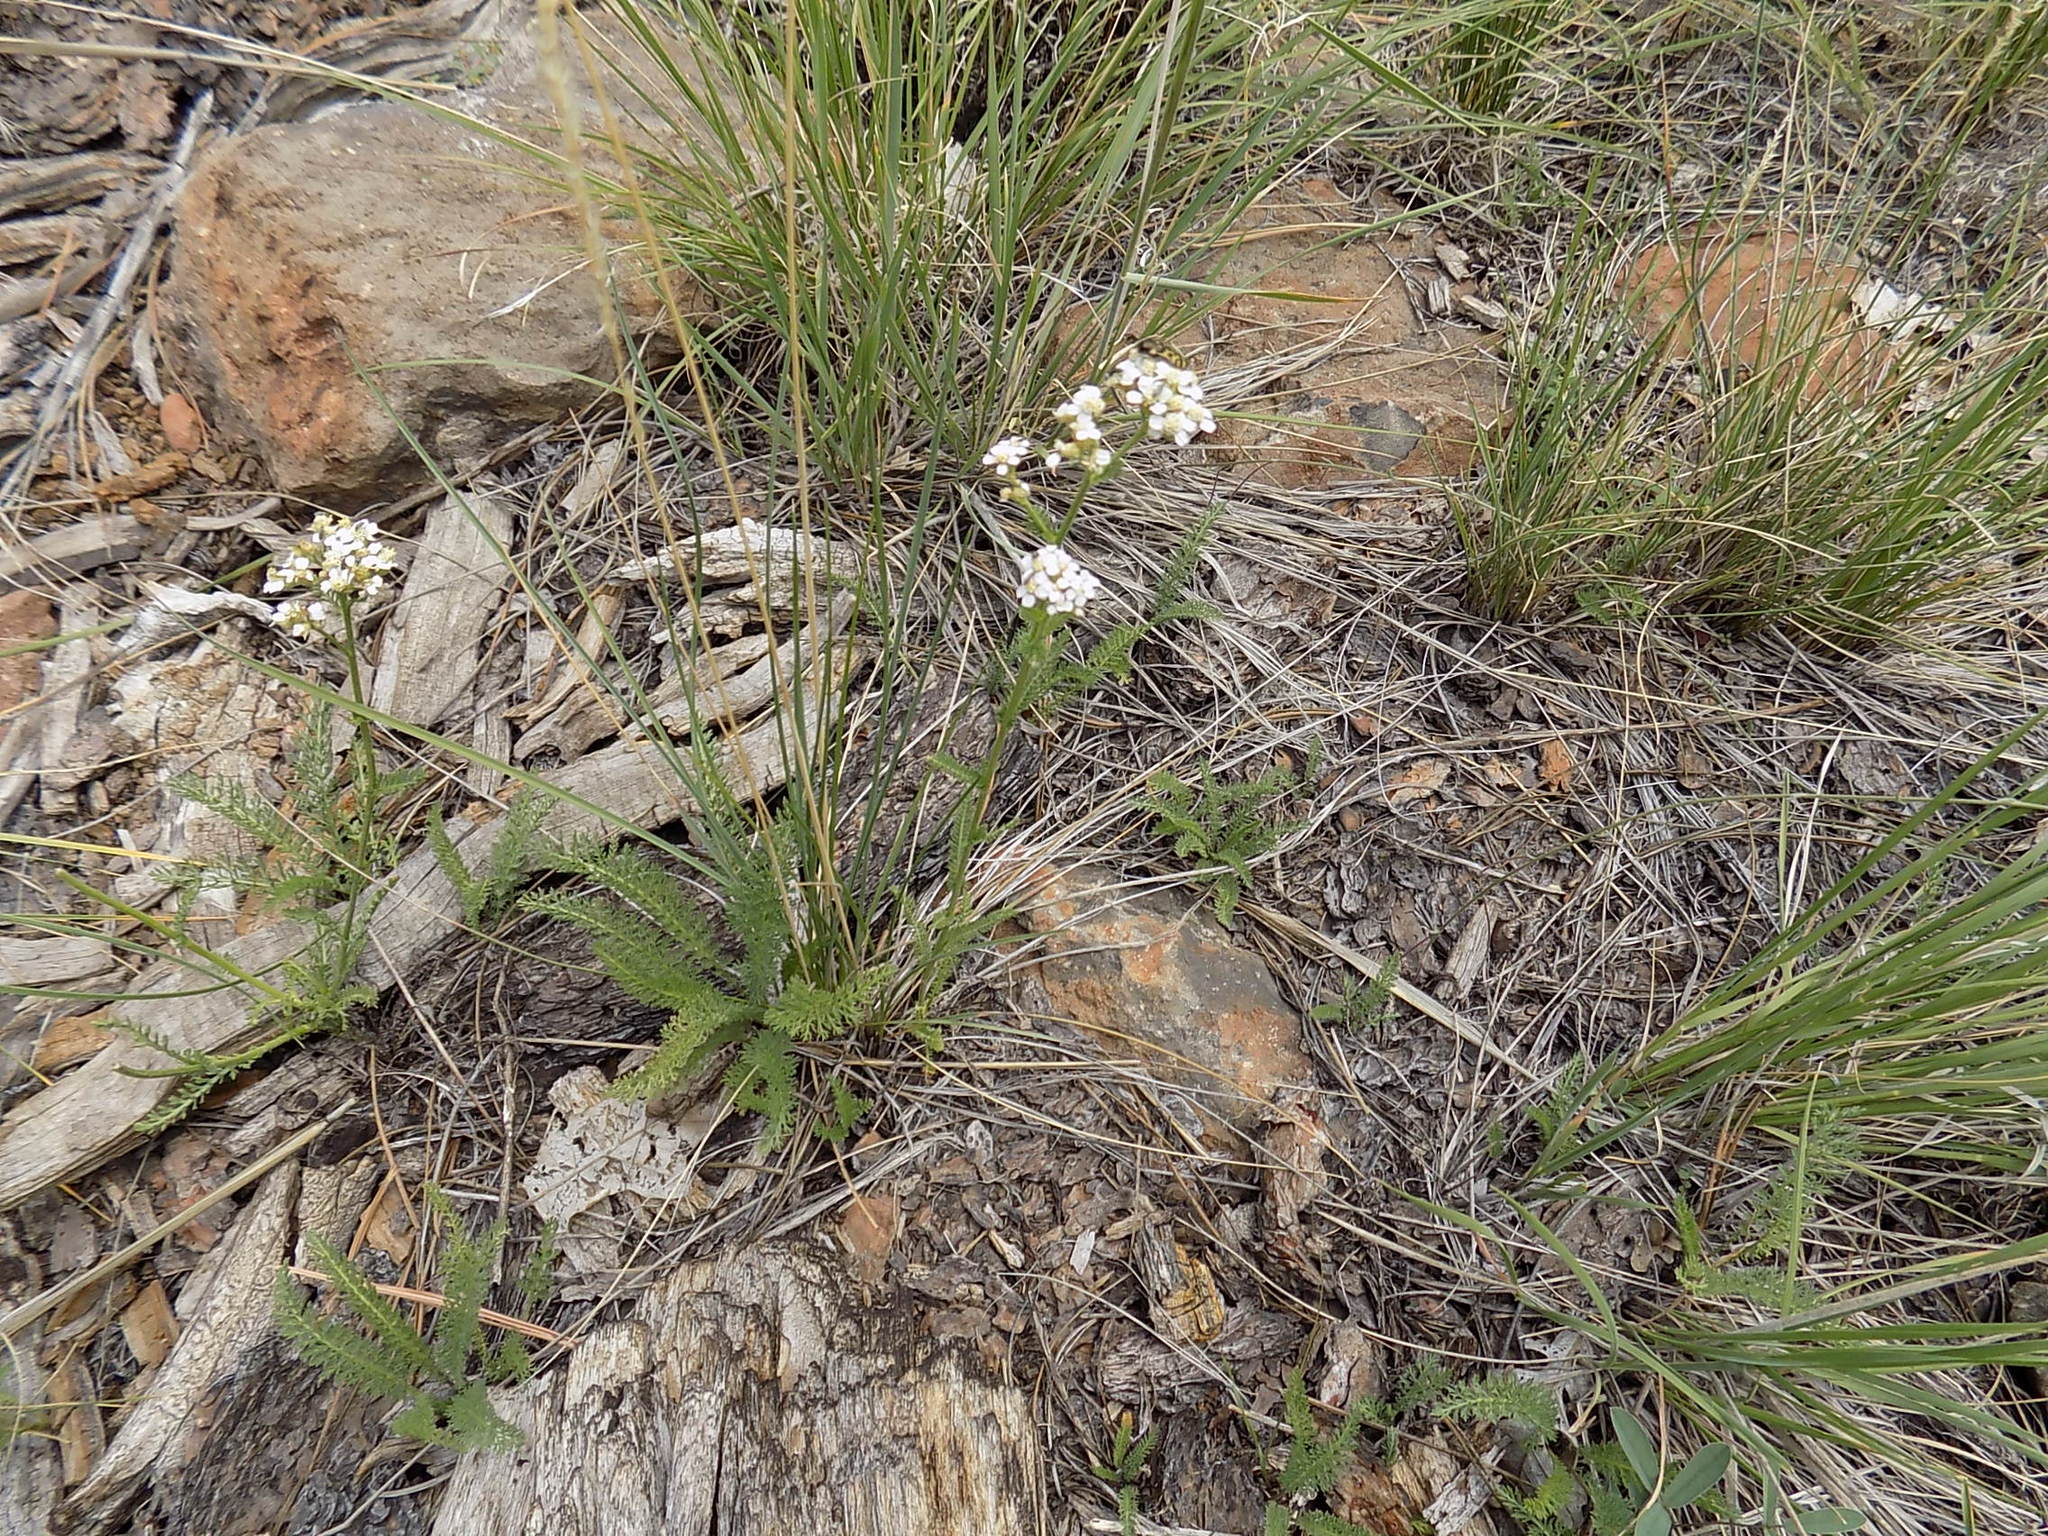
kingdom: Plantae
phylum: Tracheophyta
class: Magnoliopsida
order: Asterales
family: Asteraceae
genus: Achillea
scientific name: Achillea millefolium
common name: Yarrow
